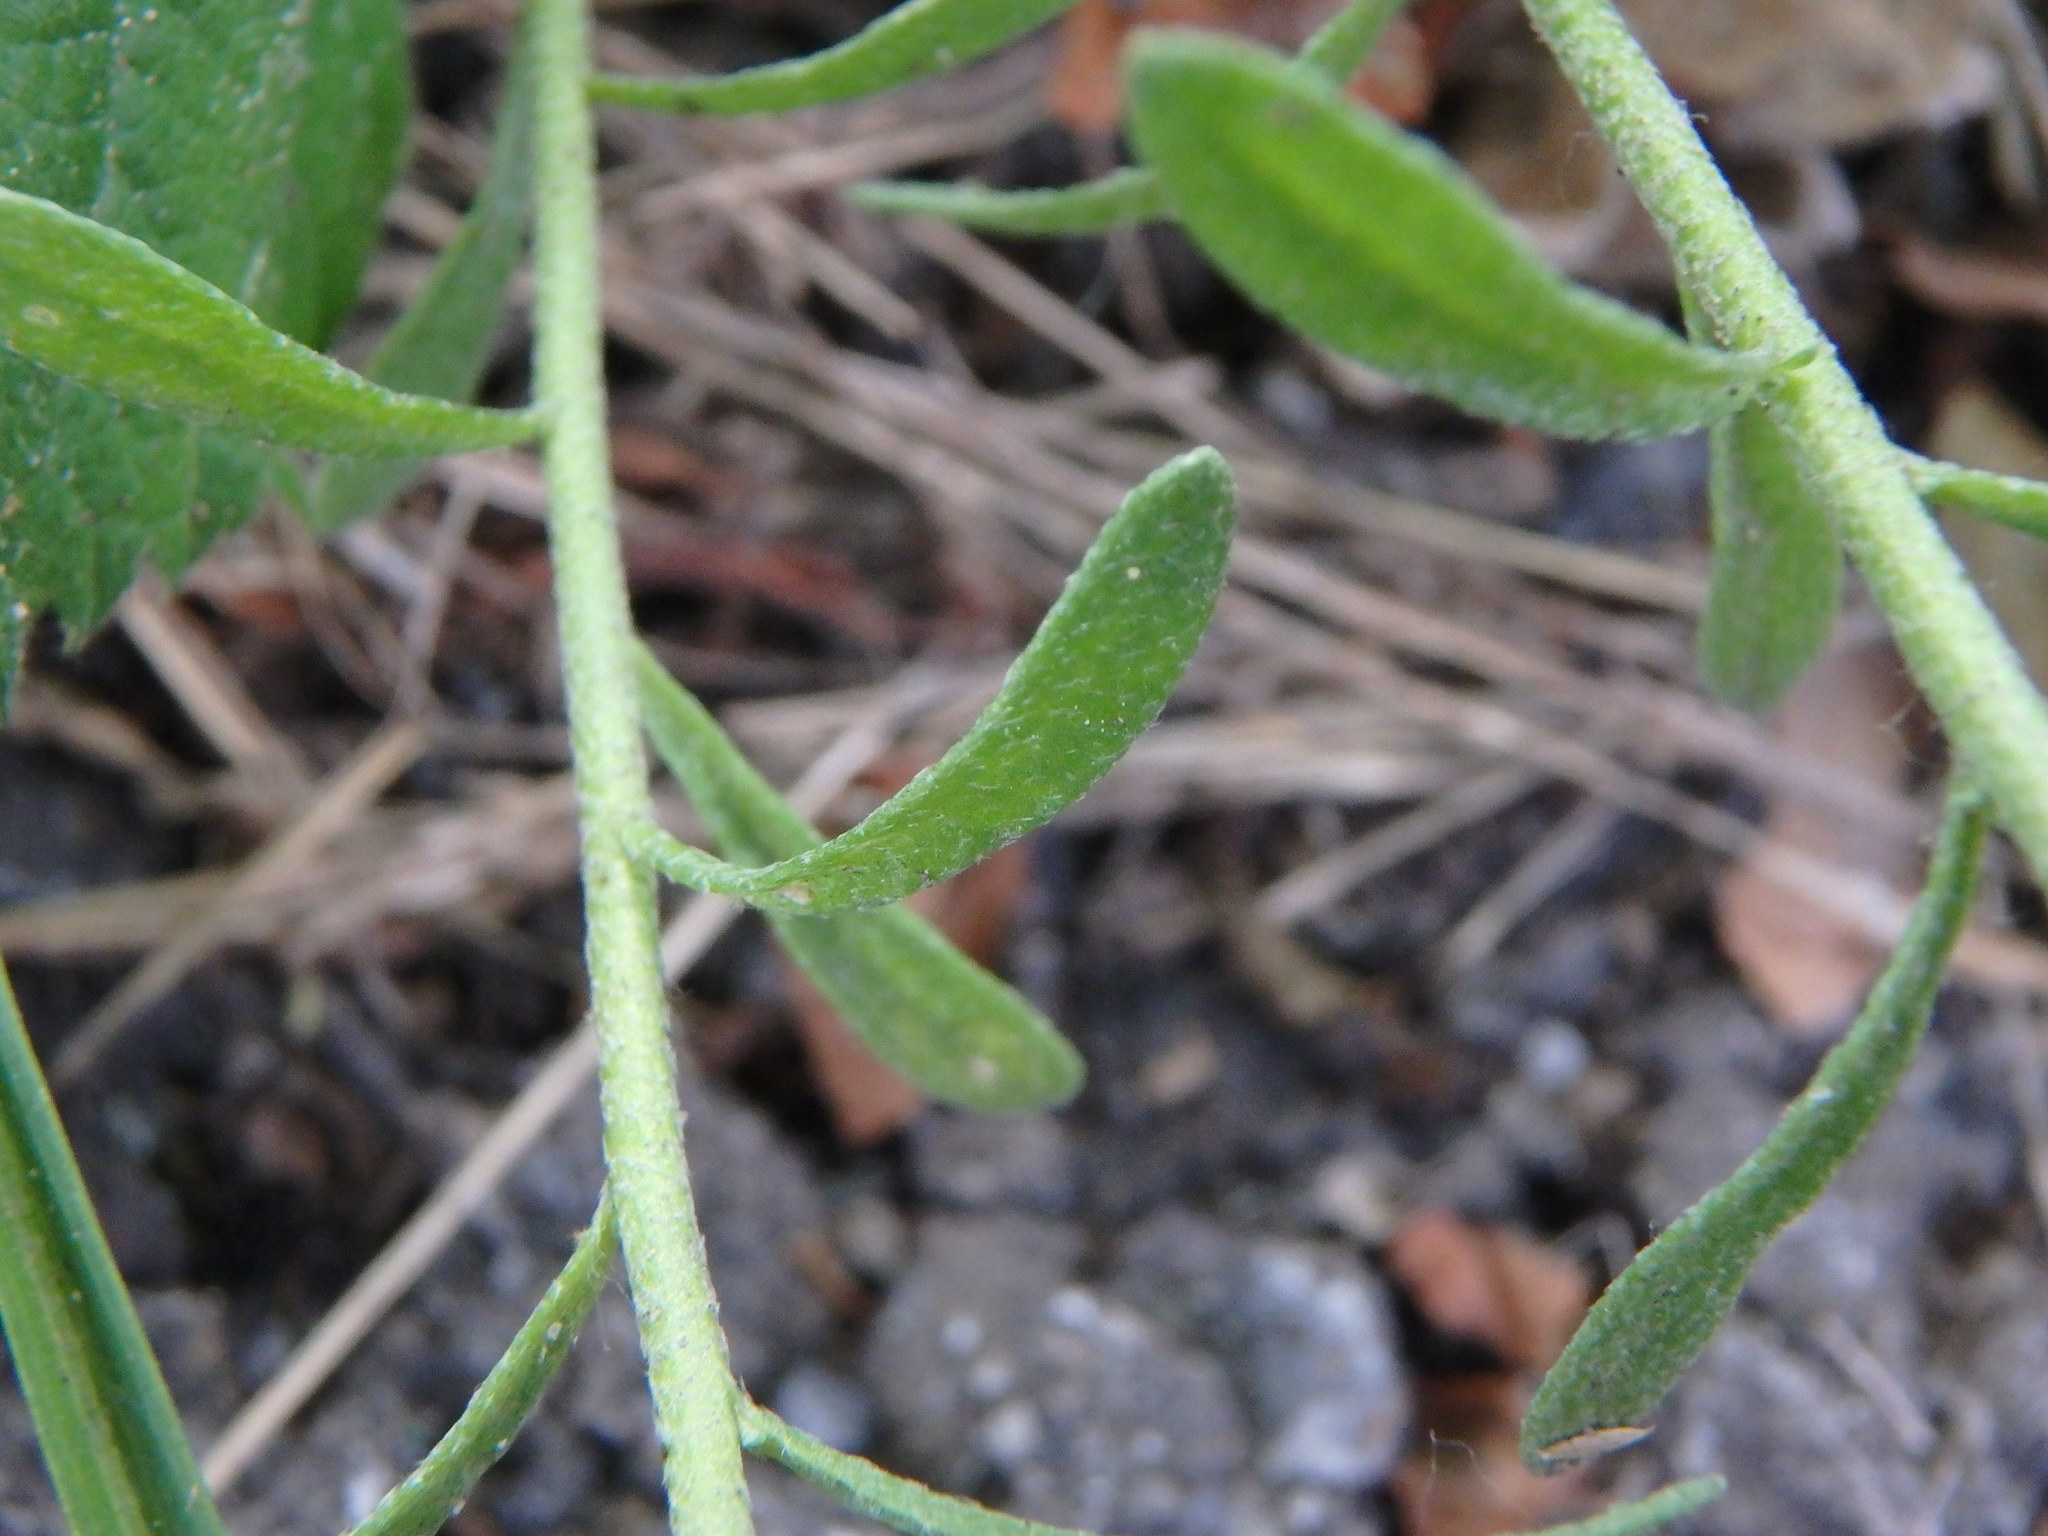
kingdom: Plantae
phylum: Tracheophyta
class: Magnoliopsida
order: Brassicales
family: Brassicaceae
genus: Alyssum
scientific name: Alyssum alyssoides
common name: Small alison
